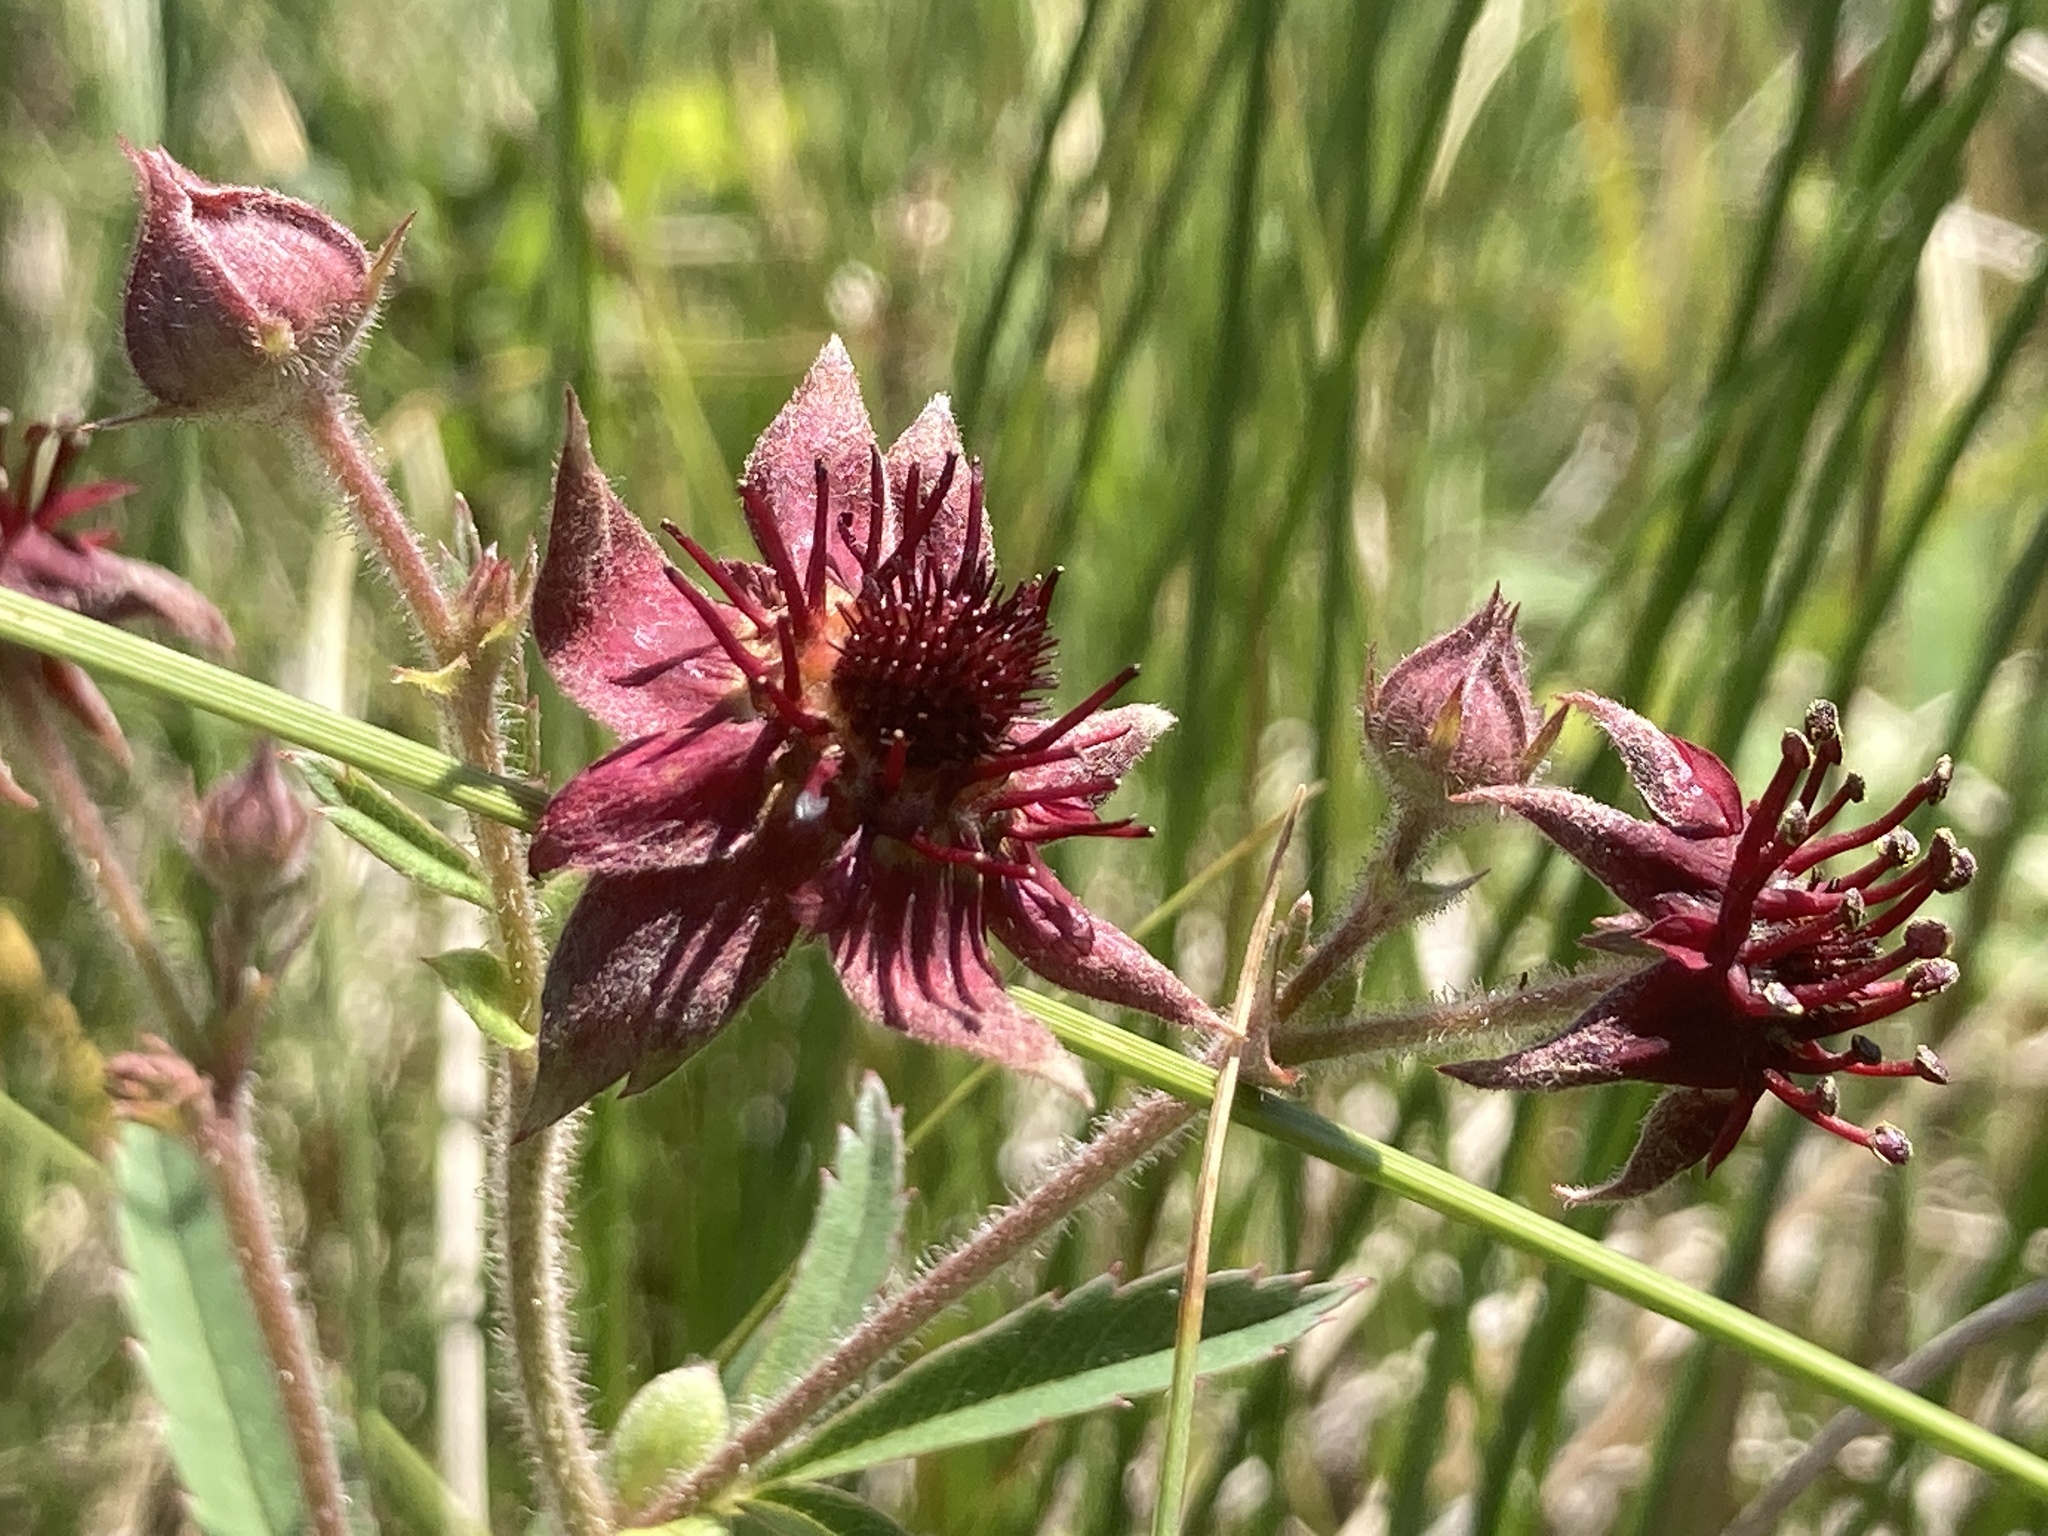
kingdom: Plantae
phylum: Tracheophyta
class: Magnoliopsida
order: Rosales
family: Rosaceae
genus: Comarum
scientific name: Comarum palustre
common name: Marsh cinquefoil
